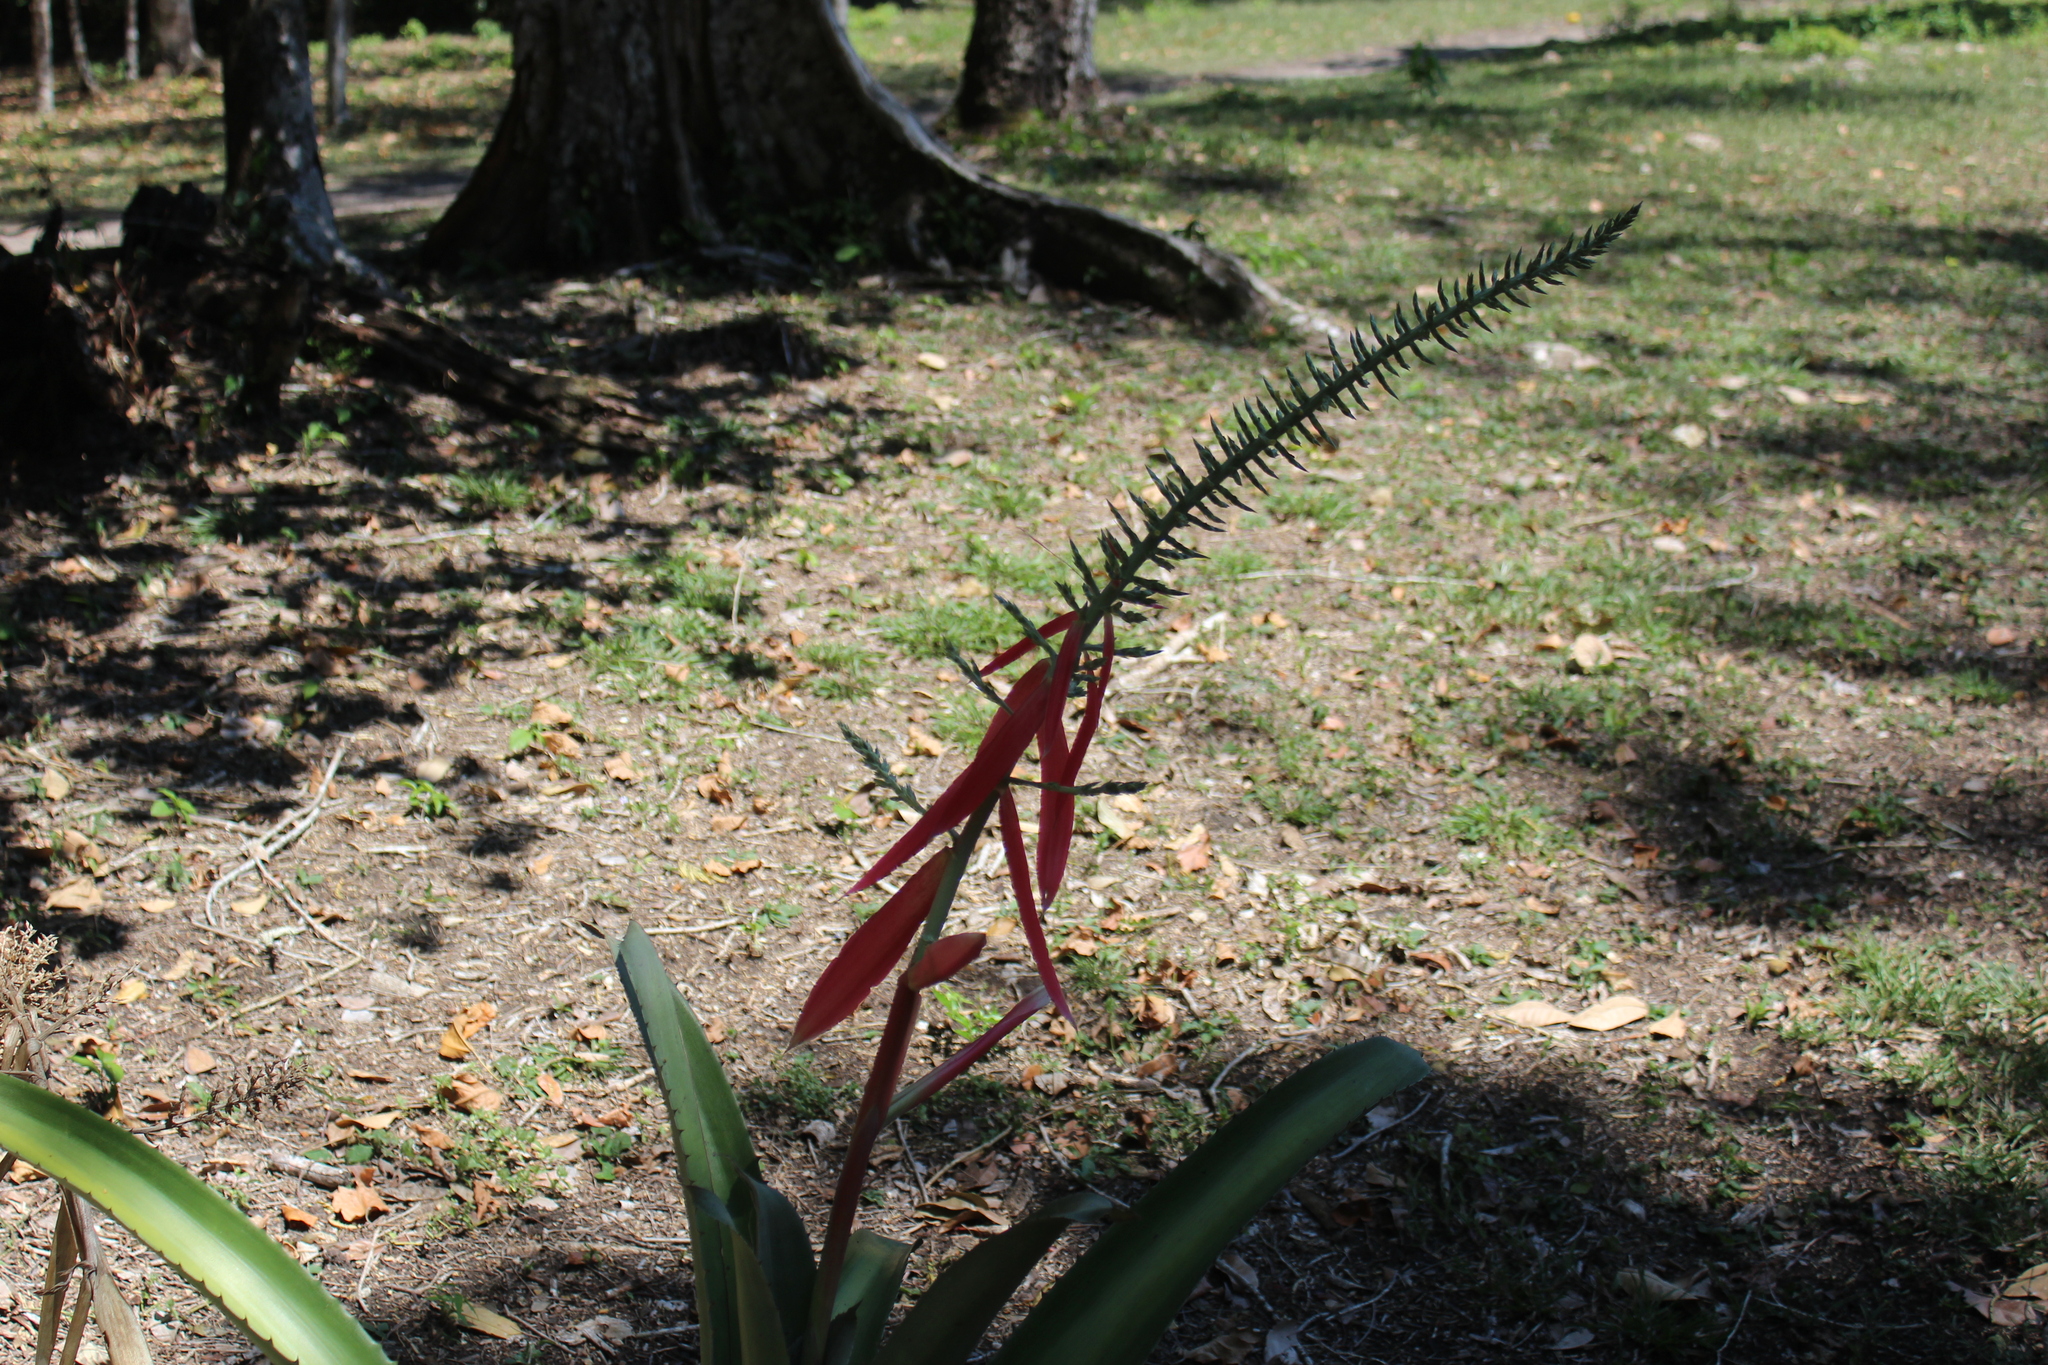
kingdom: Plantae
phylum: Tracheophyta
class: Liliopsida
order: Poales
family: Bromeliaceae
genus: Aechmea
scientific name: Aechmea bracteata
